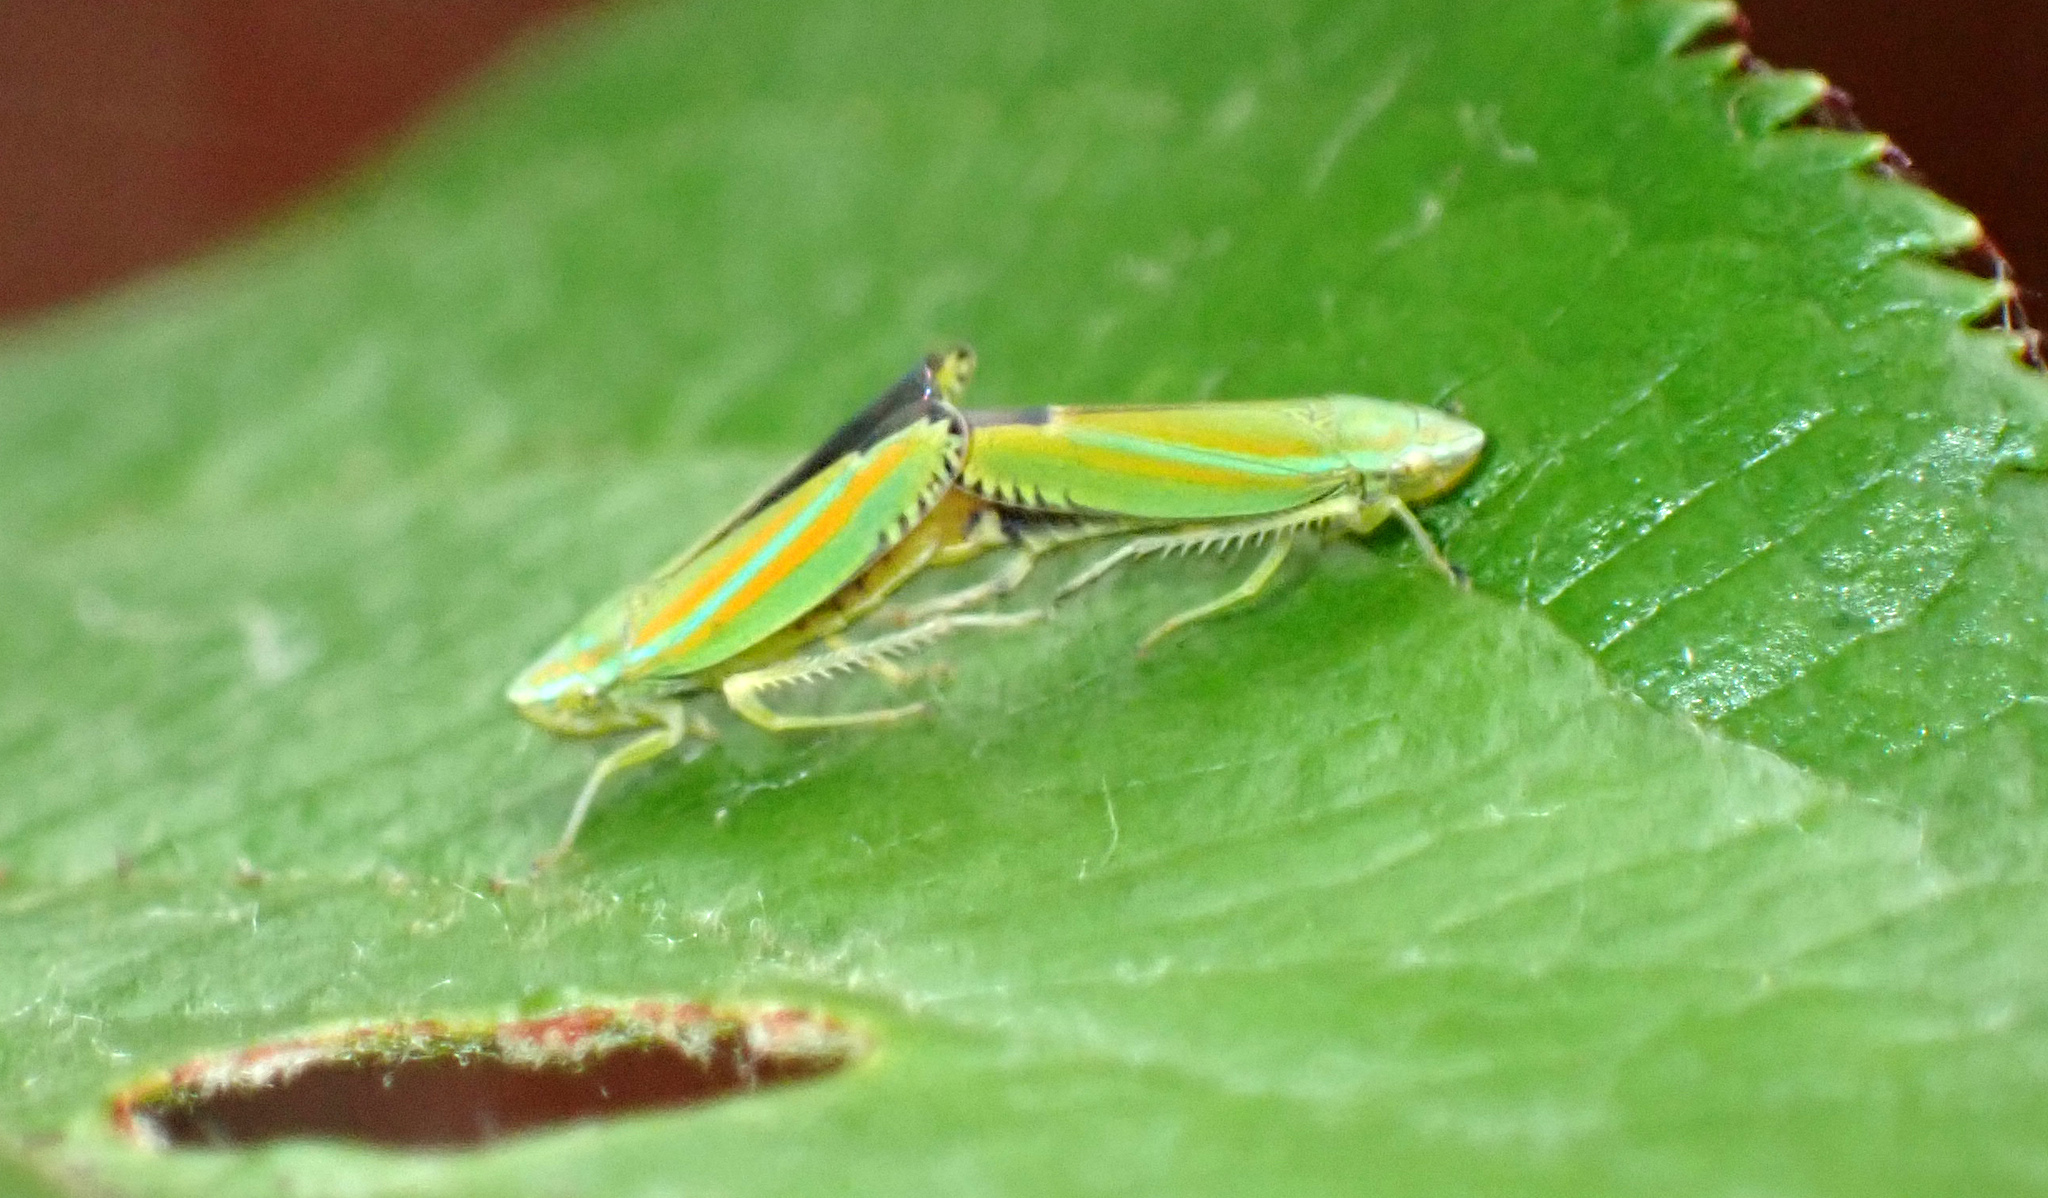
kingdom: Animalia
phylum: Arthropoda
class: Insecta
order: Hemiptera
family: Cicadellidae
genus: Graphocephala
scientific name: Graphocephala versuta
